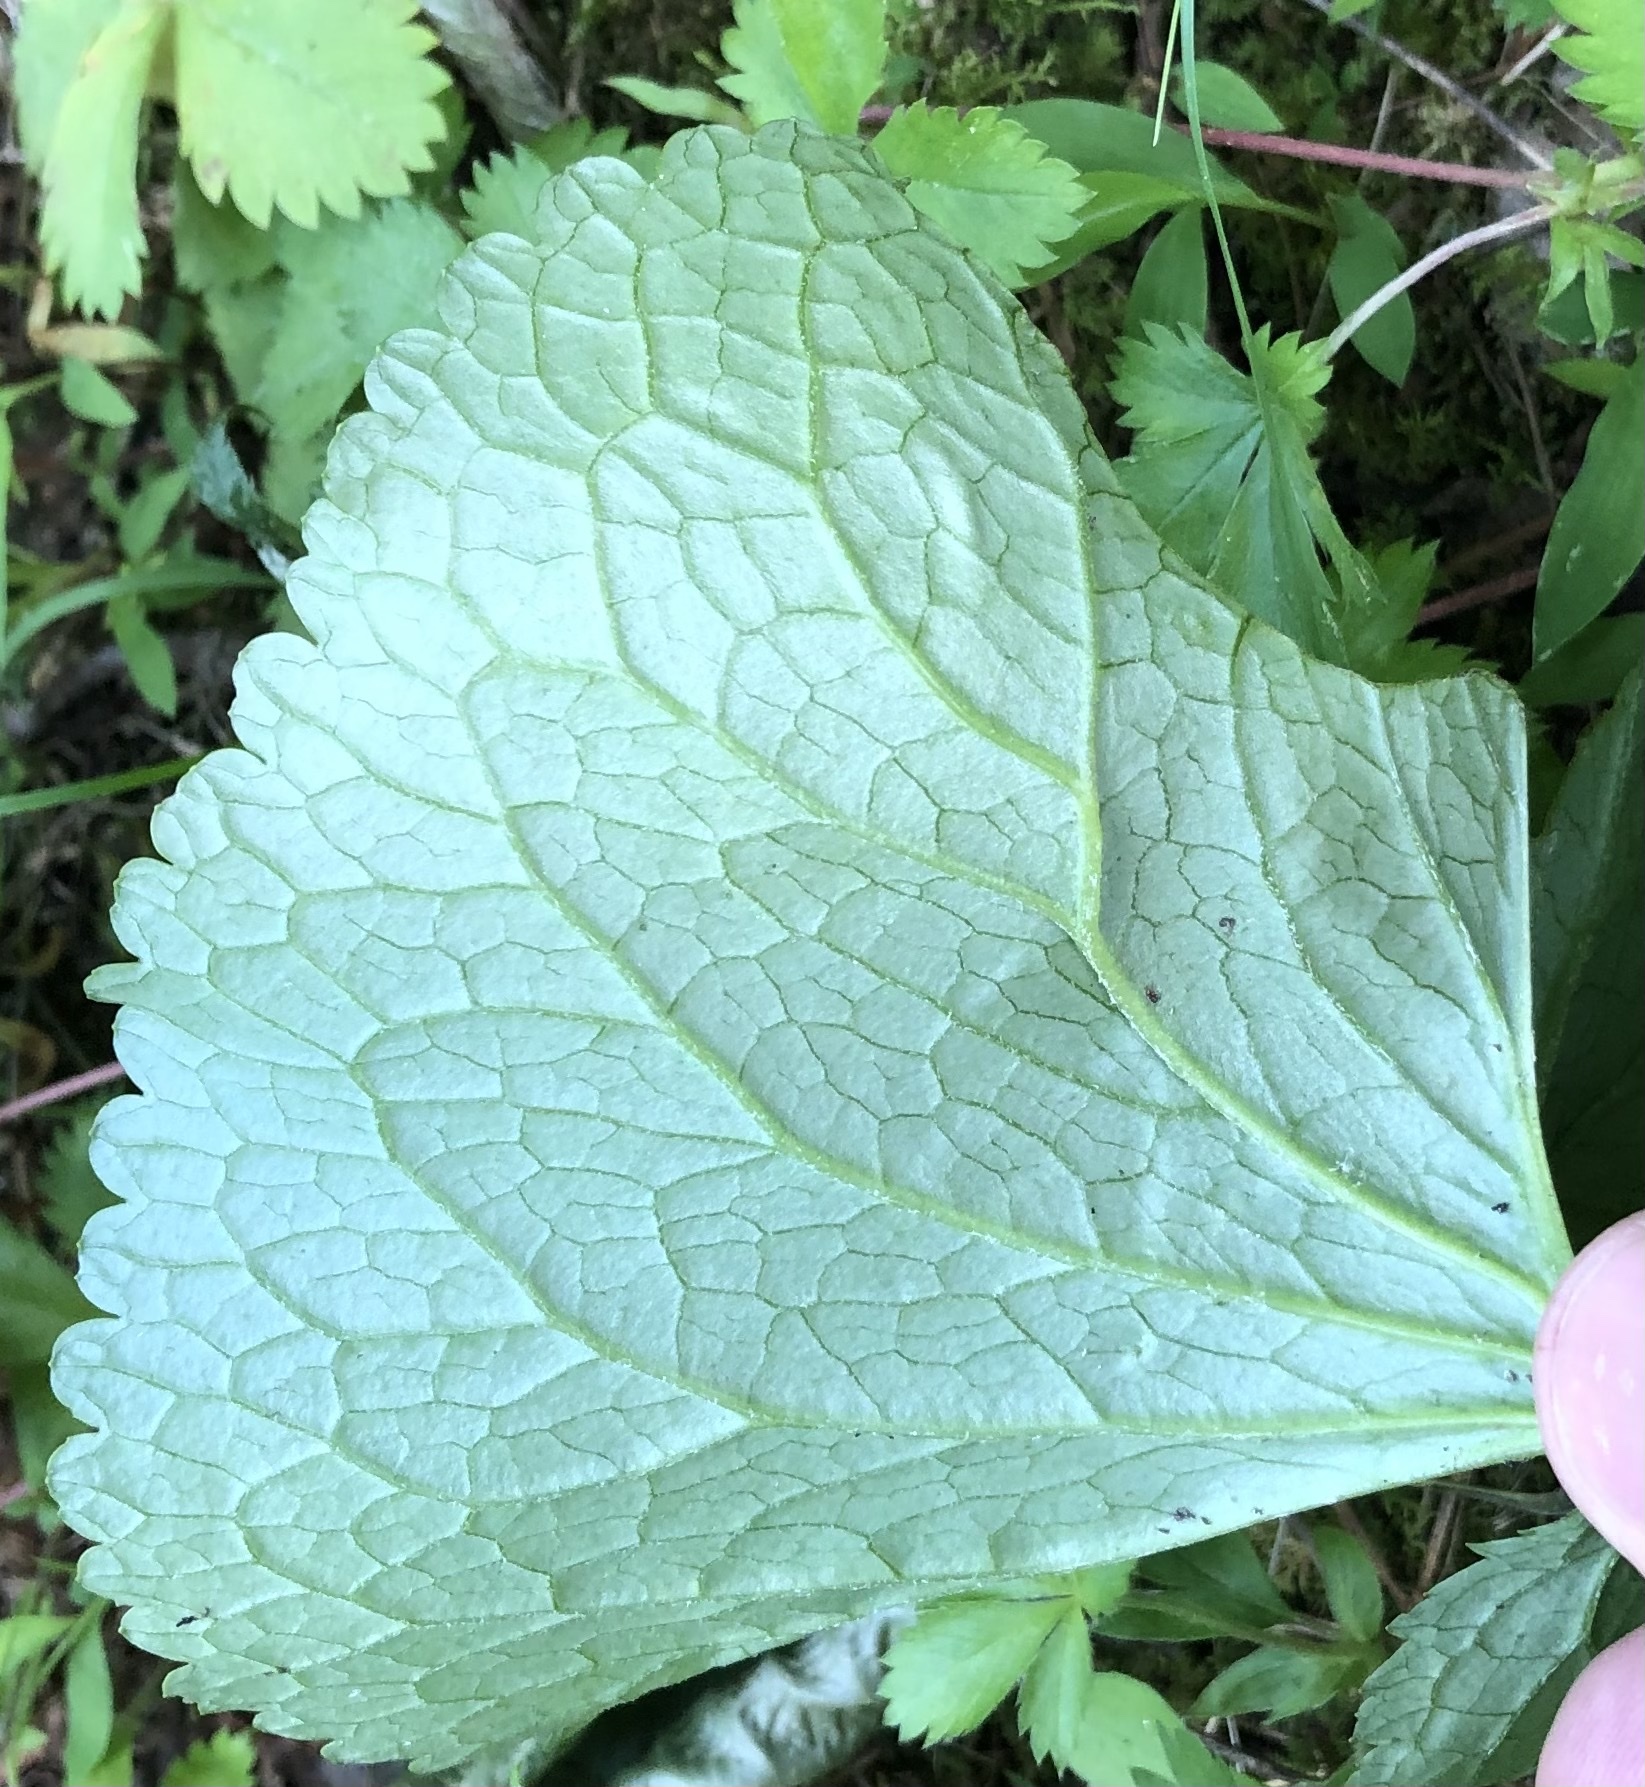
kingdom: Animalia
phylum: Arthropoda
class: Insecta
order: Lepidoptera
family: Gracillariidae
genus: Phyllocnistis
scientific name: Phyllocnistis insignis
